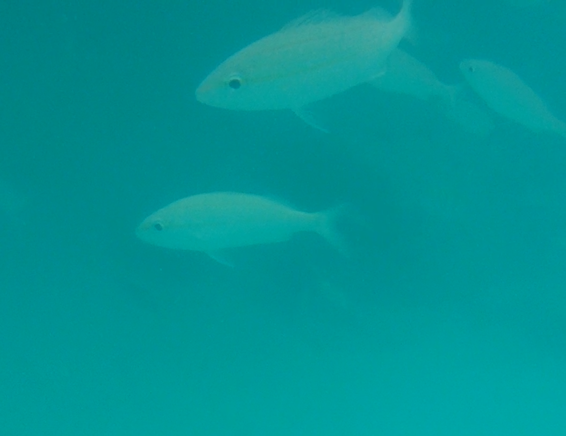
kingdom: Animalia
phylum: Chordata
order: Perciformes
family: Haemulidae
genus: Haemulon
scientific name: Haemulon aurolineatum
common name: Tomtate
